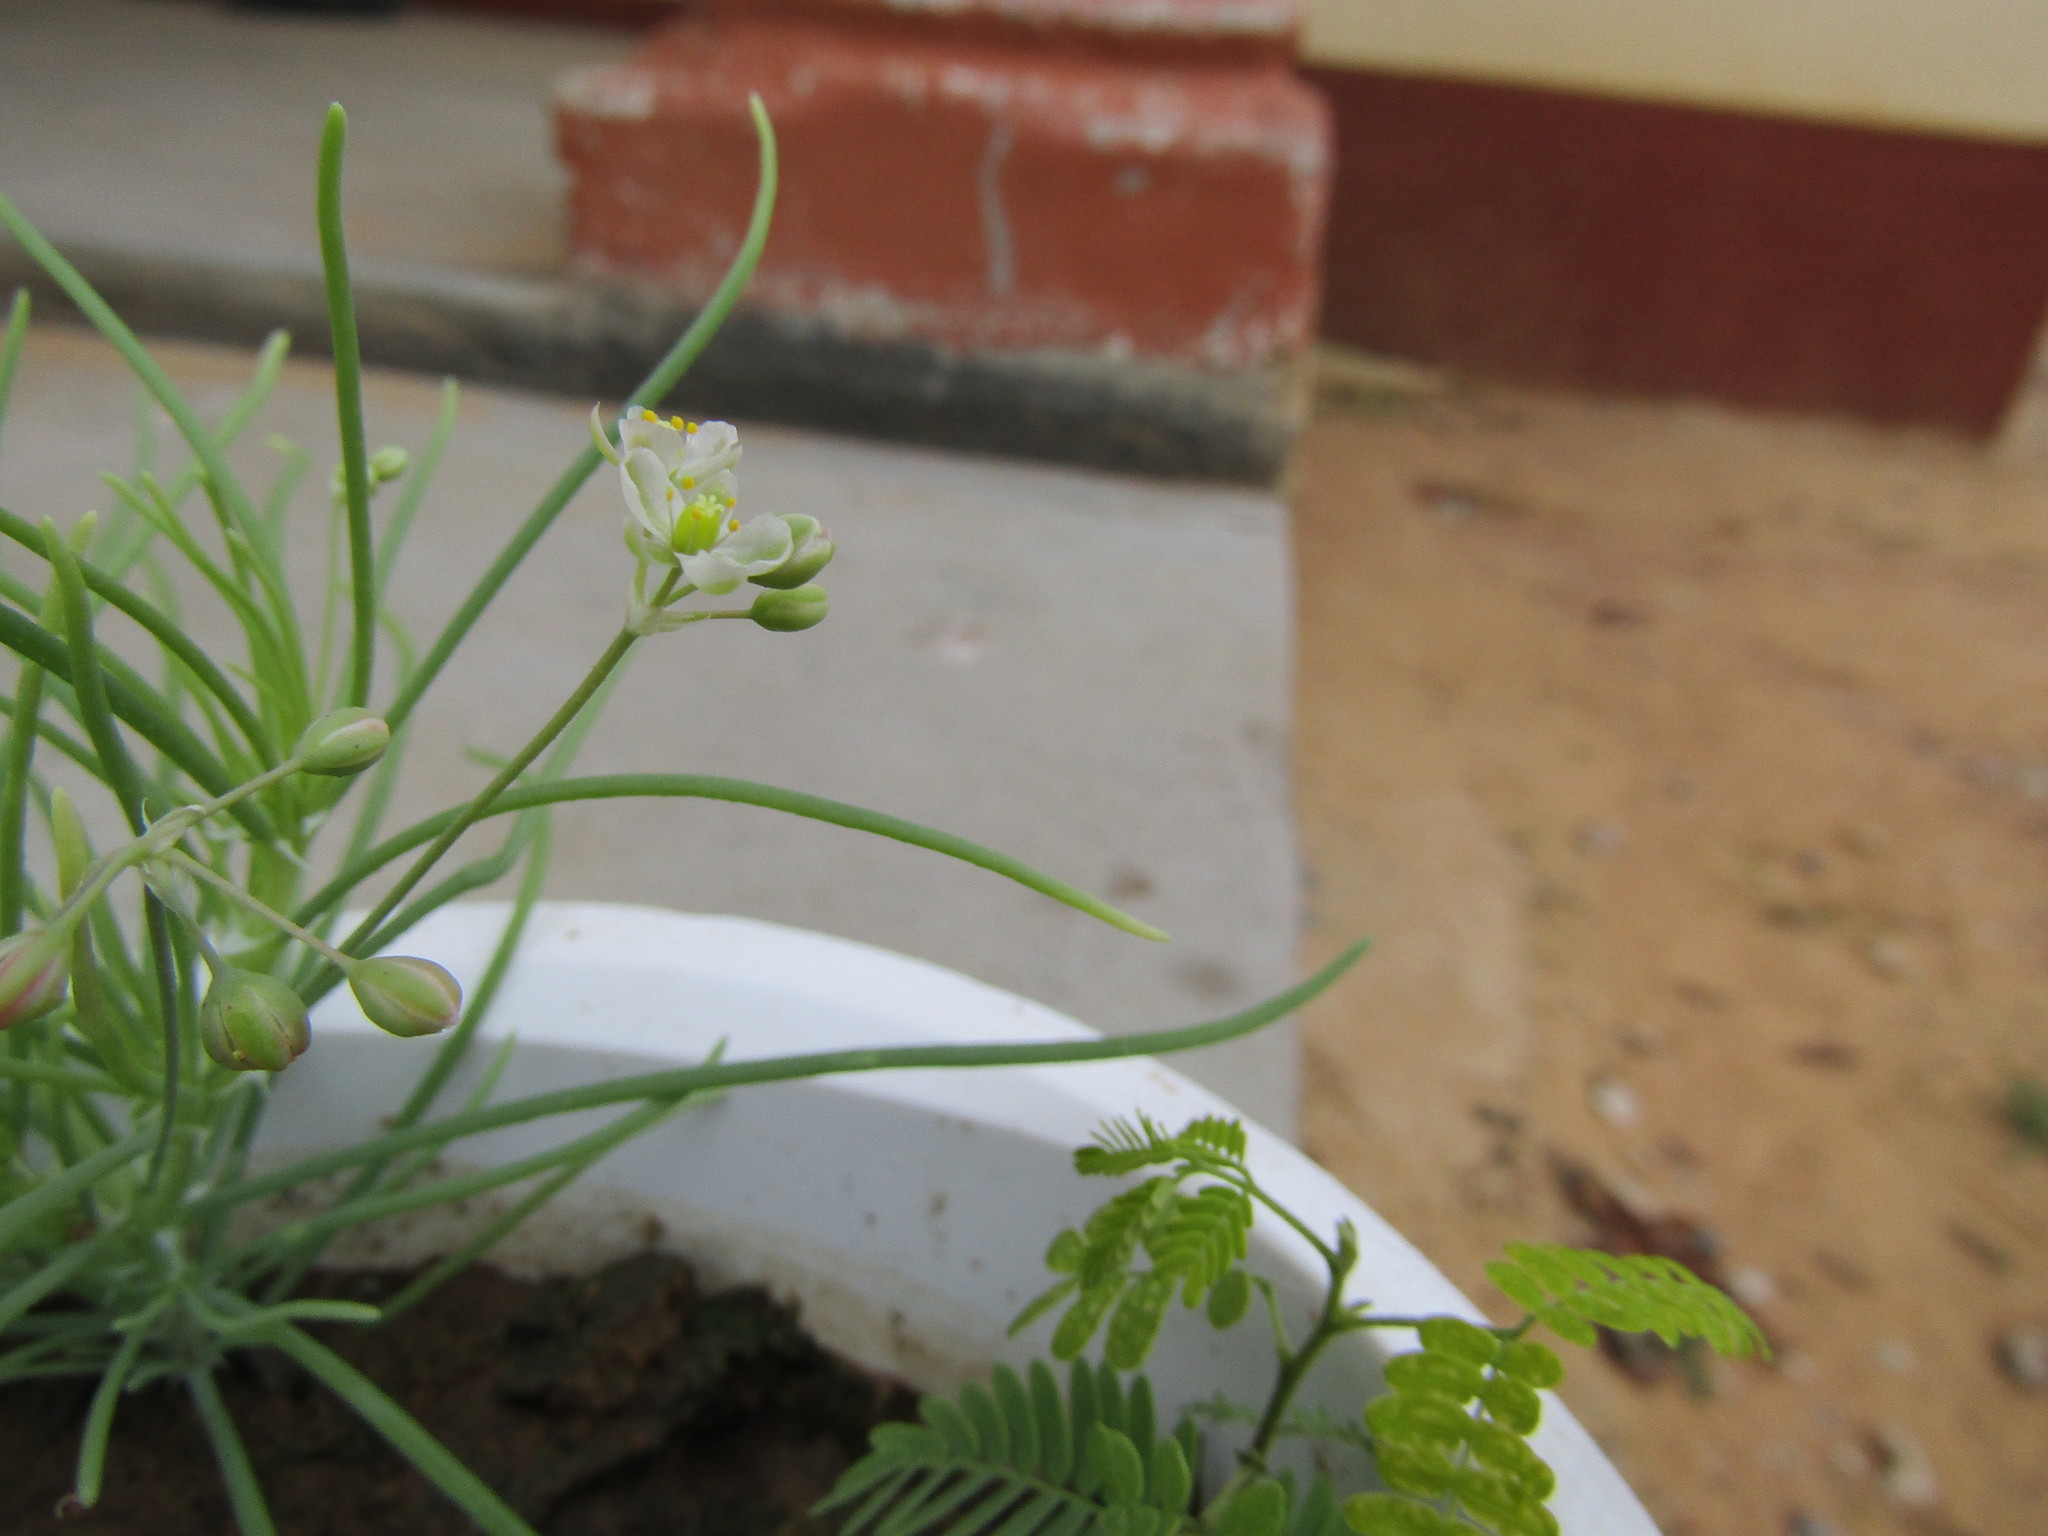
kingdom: Plantae
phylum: Tracheophyta
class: Magnoliopsida
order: Caryophyllales
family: Kewaceae
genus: Kewa
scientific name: Kewa bowkeriana
